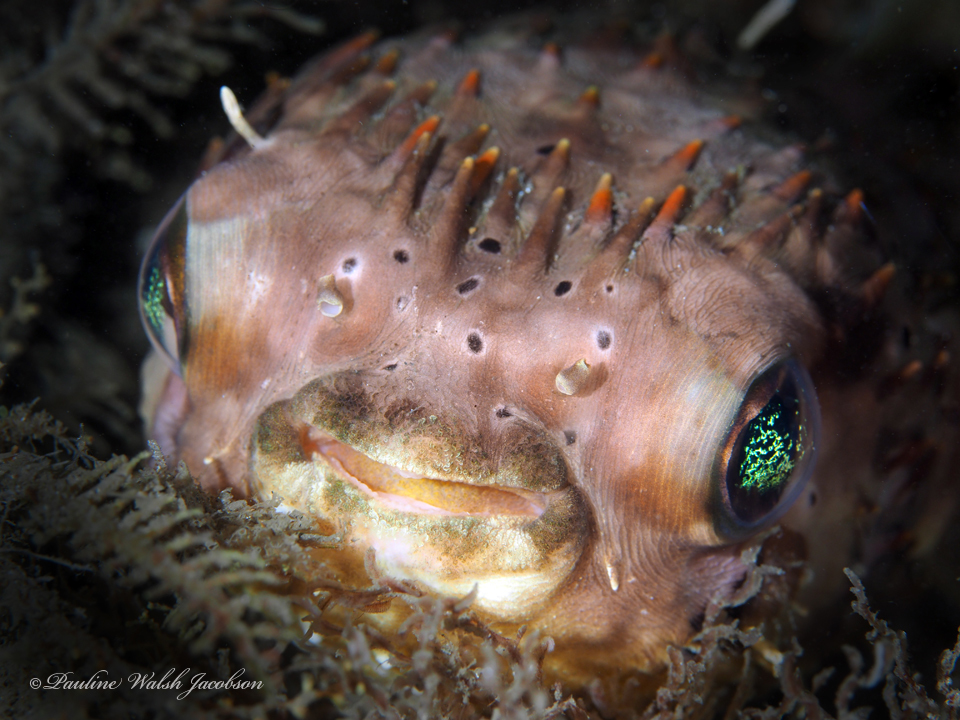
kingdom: Animalia
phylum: Chordata
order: Tetraodontiformes
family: Diodontidae
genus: Diodon
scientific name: Diodon holocanthus
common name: Balloonfish
